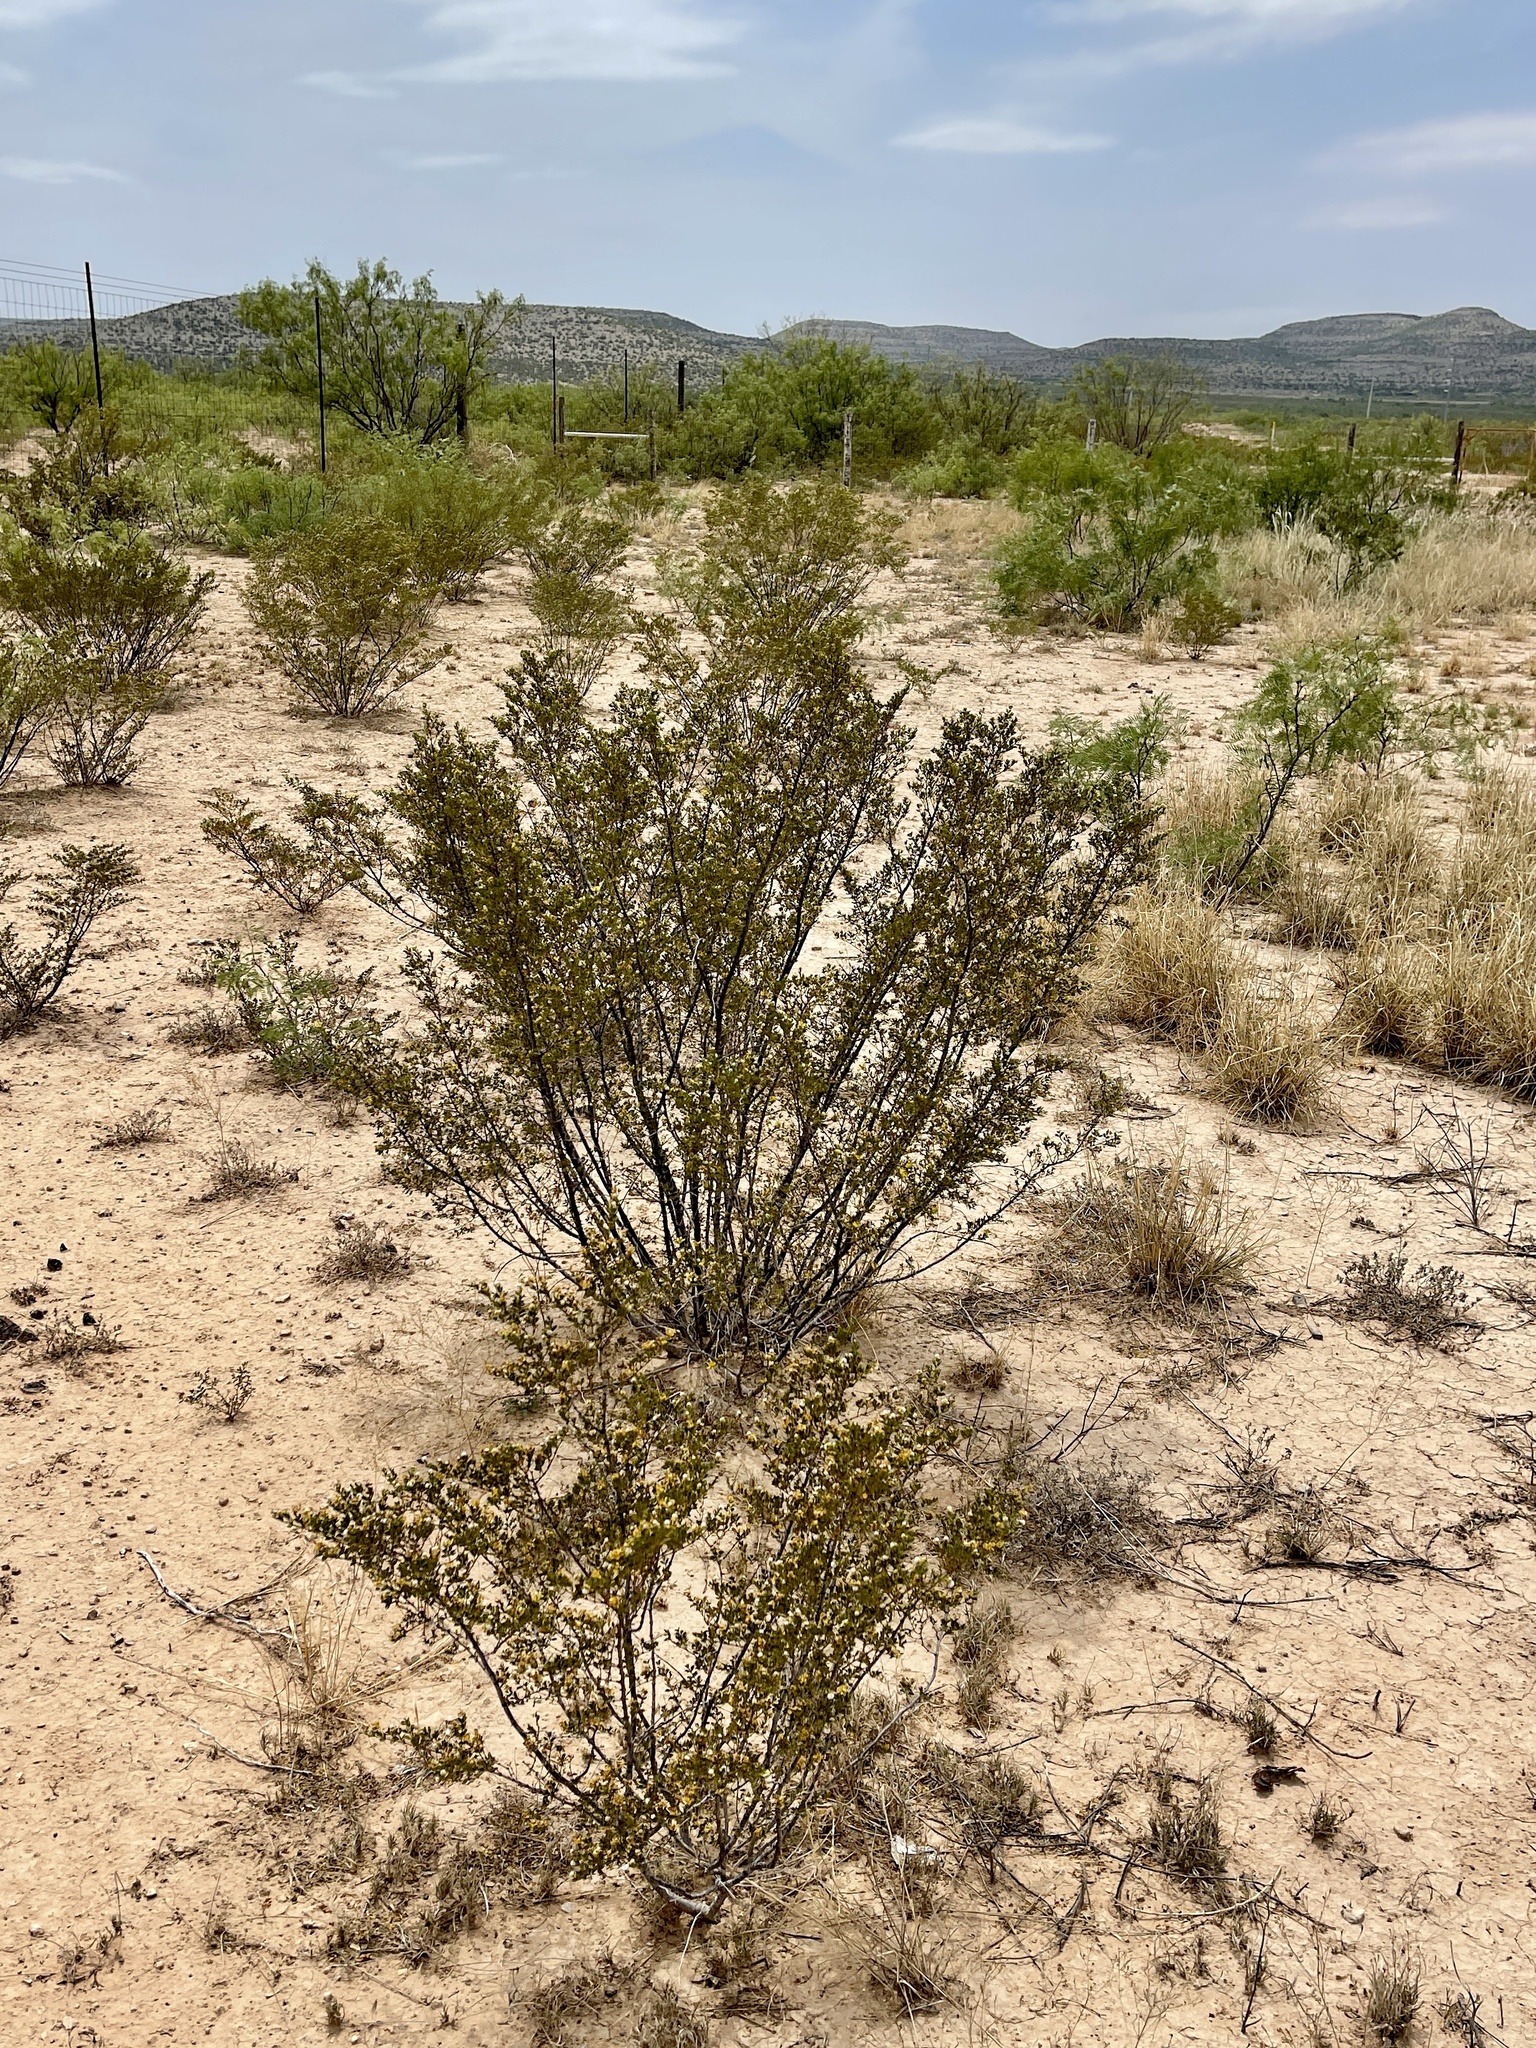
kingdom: Plantae
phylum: Tracheophyta
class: Magnoliopsida
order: Zygophyllales
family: Zygophyllaceae
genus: Larrea
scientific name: Larrea tridentata
